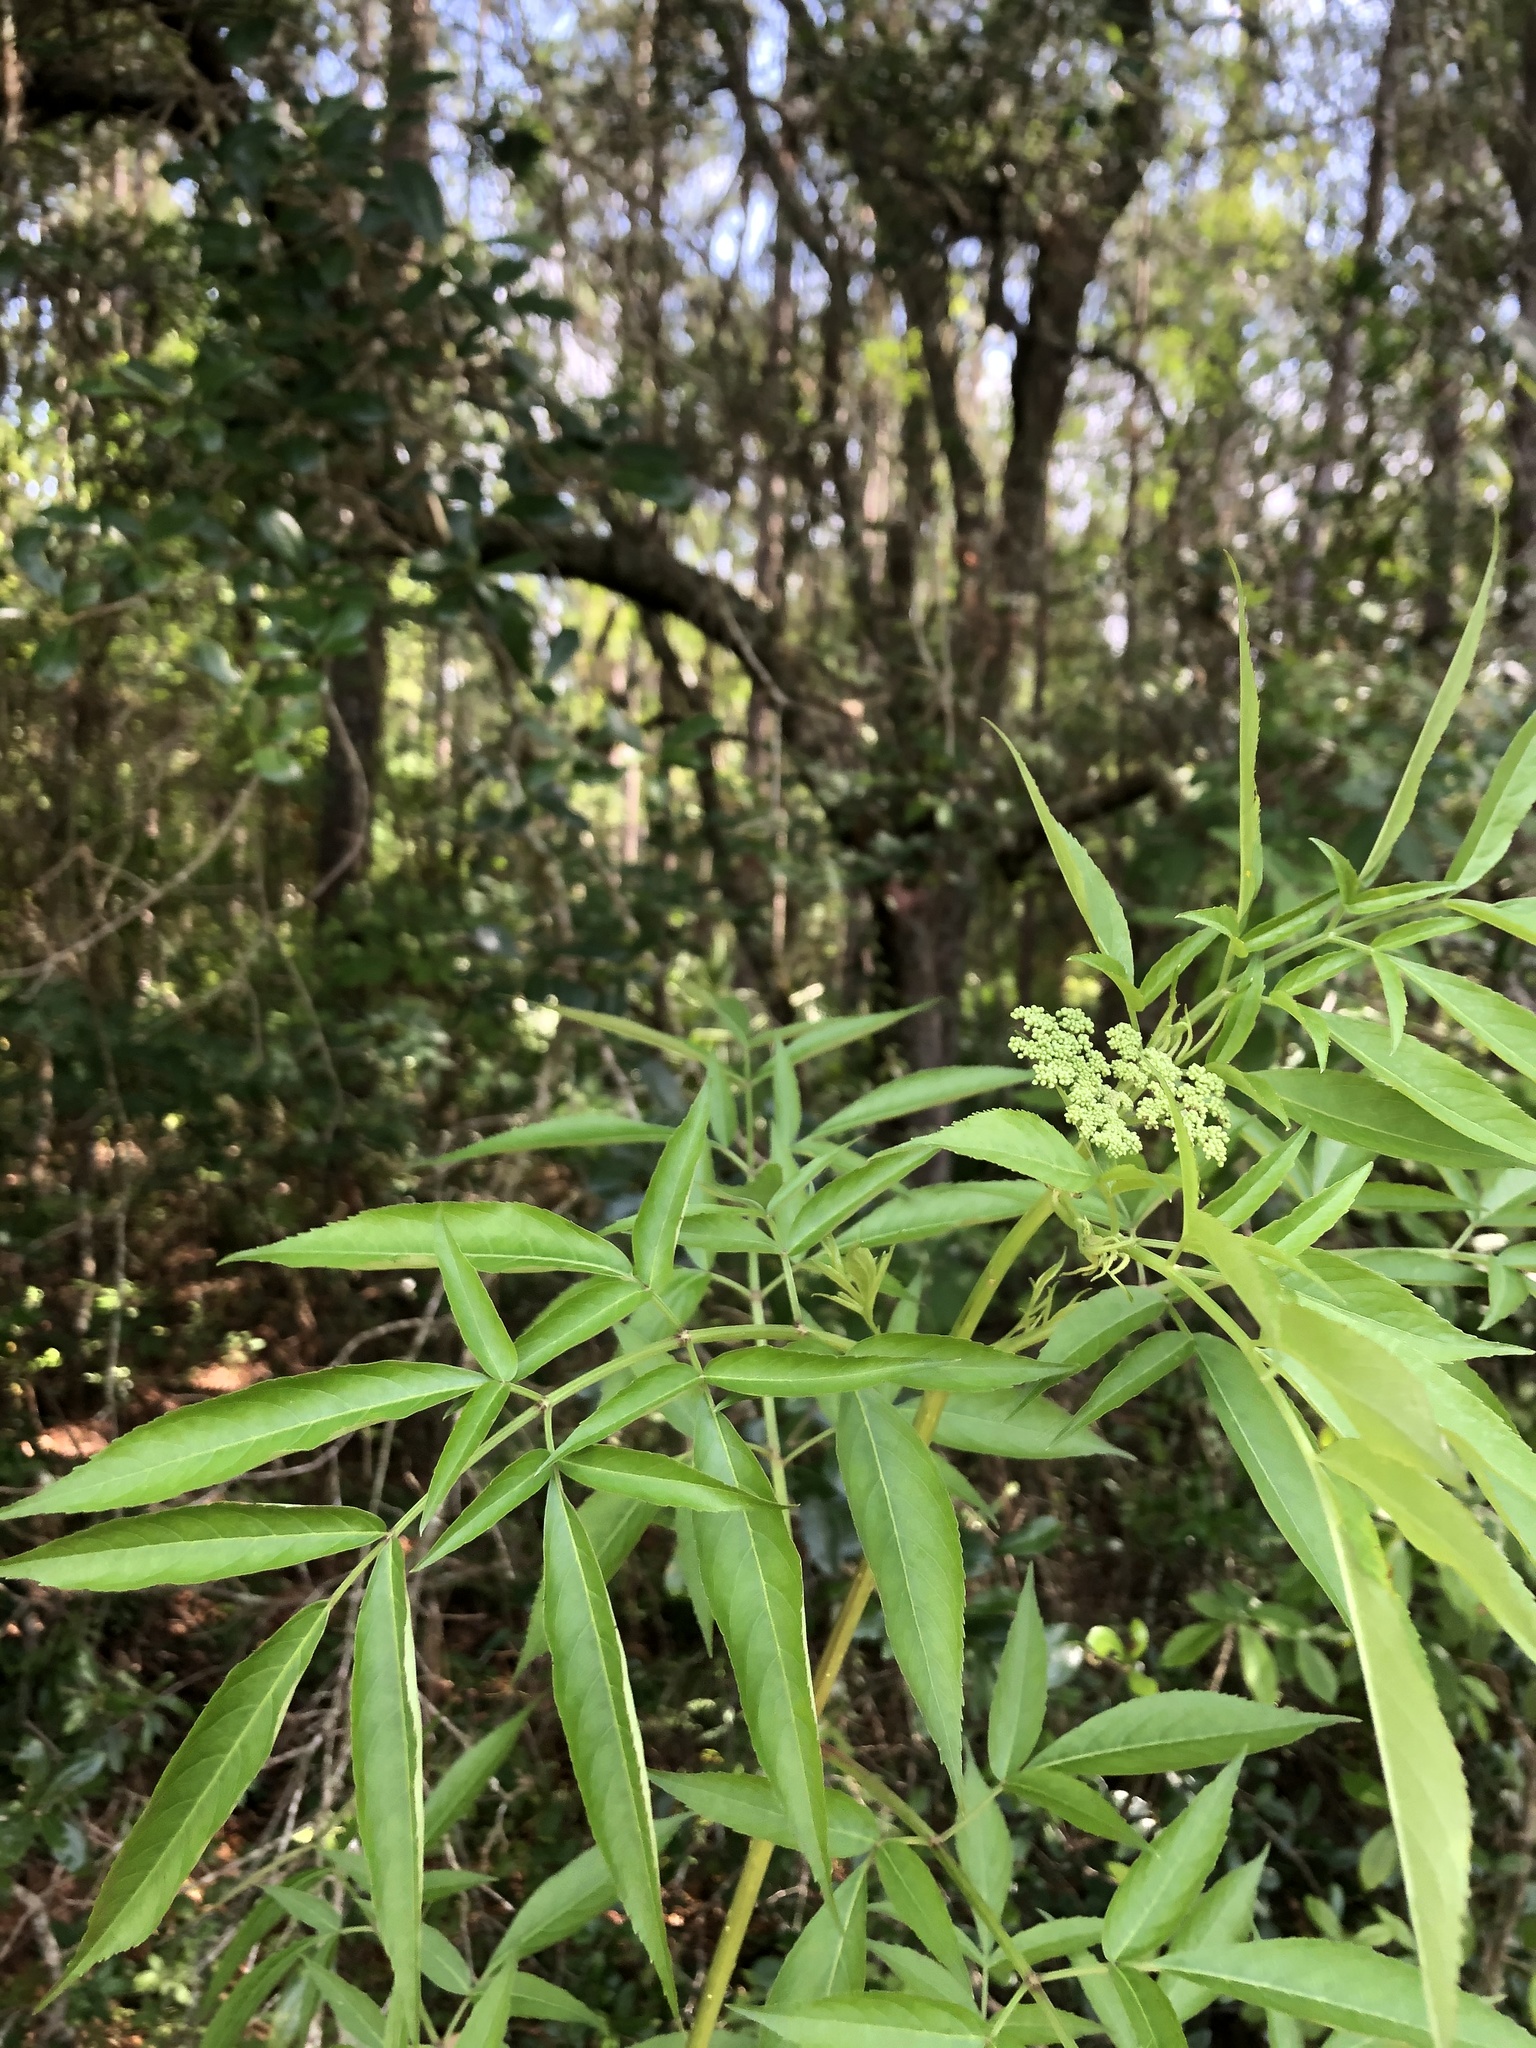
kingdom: Plantae
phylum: Tracheophyta
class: Magnoliopsida
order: Dipsacales
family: Viburnaceae
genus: Sambucus
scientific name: Sambucus canadensis
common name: American elder
